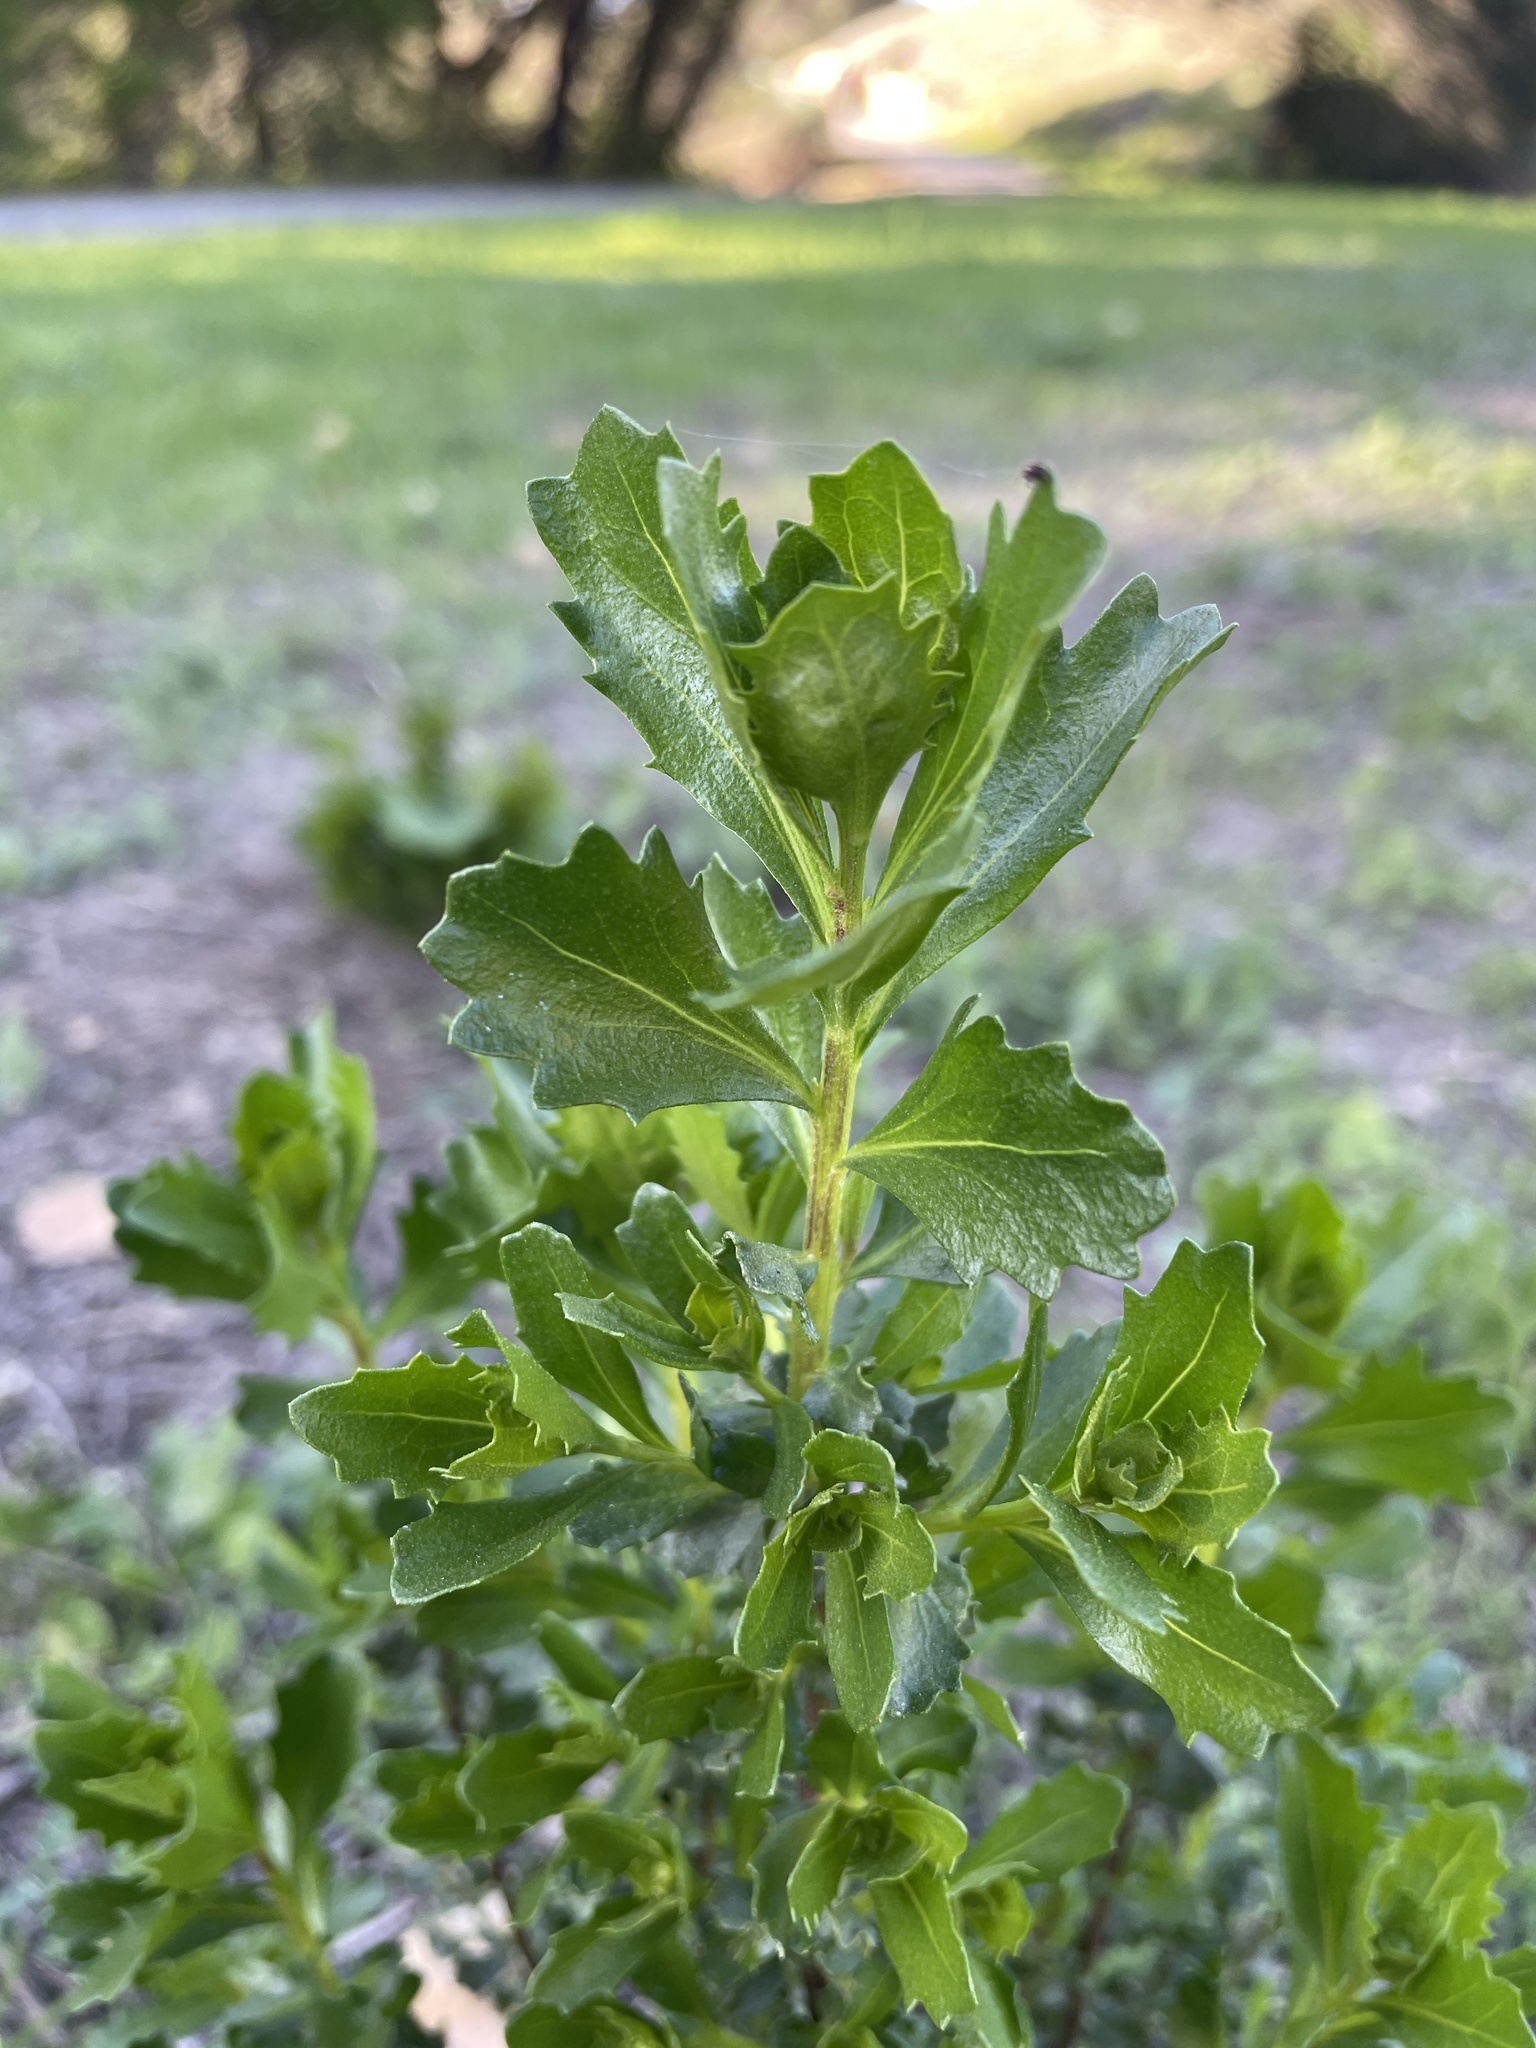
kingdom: Plantae
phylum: Tracheophyta
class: Magnoliopsida
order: Asterales
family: Asteraceae
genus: Baccharis
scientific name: Baccharis pilularis
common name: Coyotebrush
